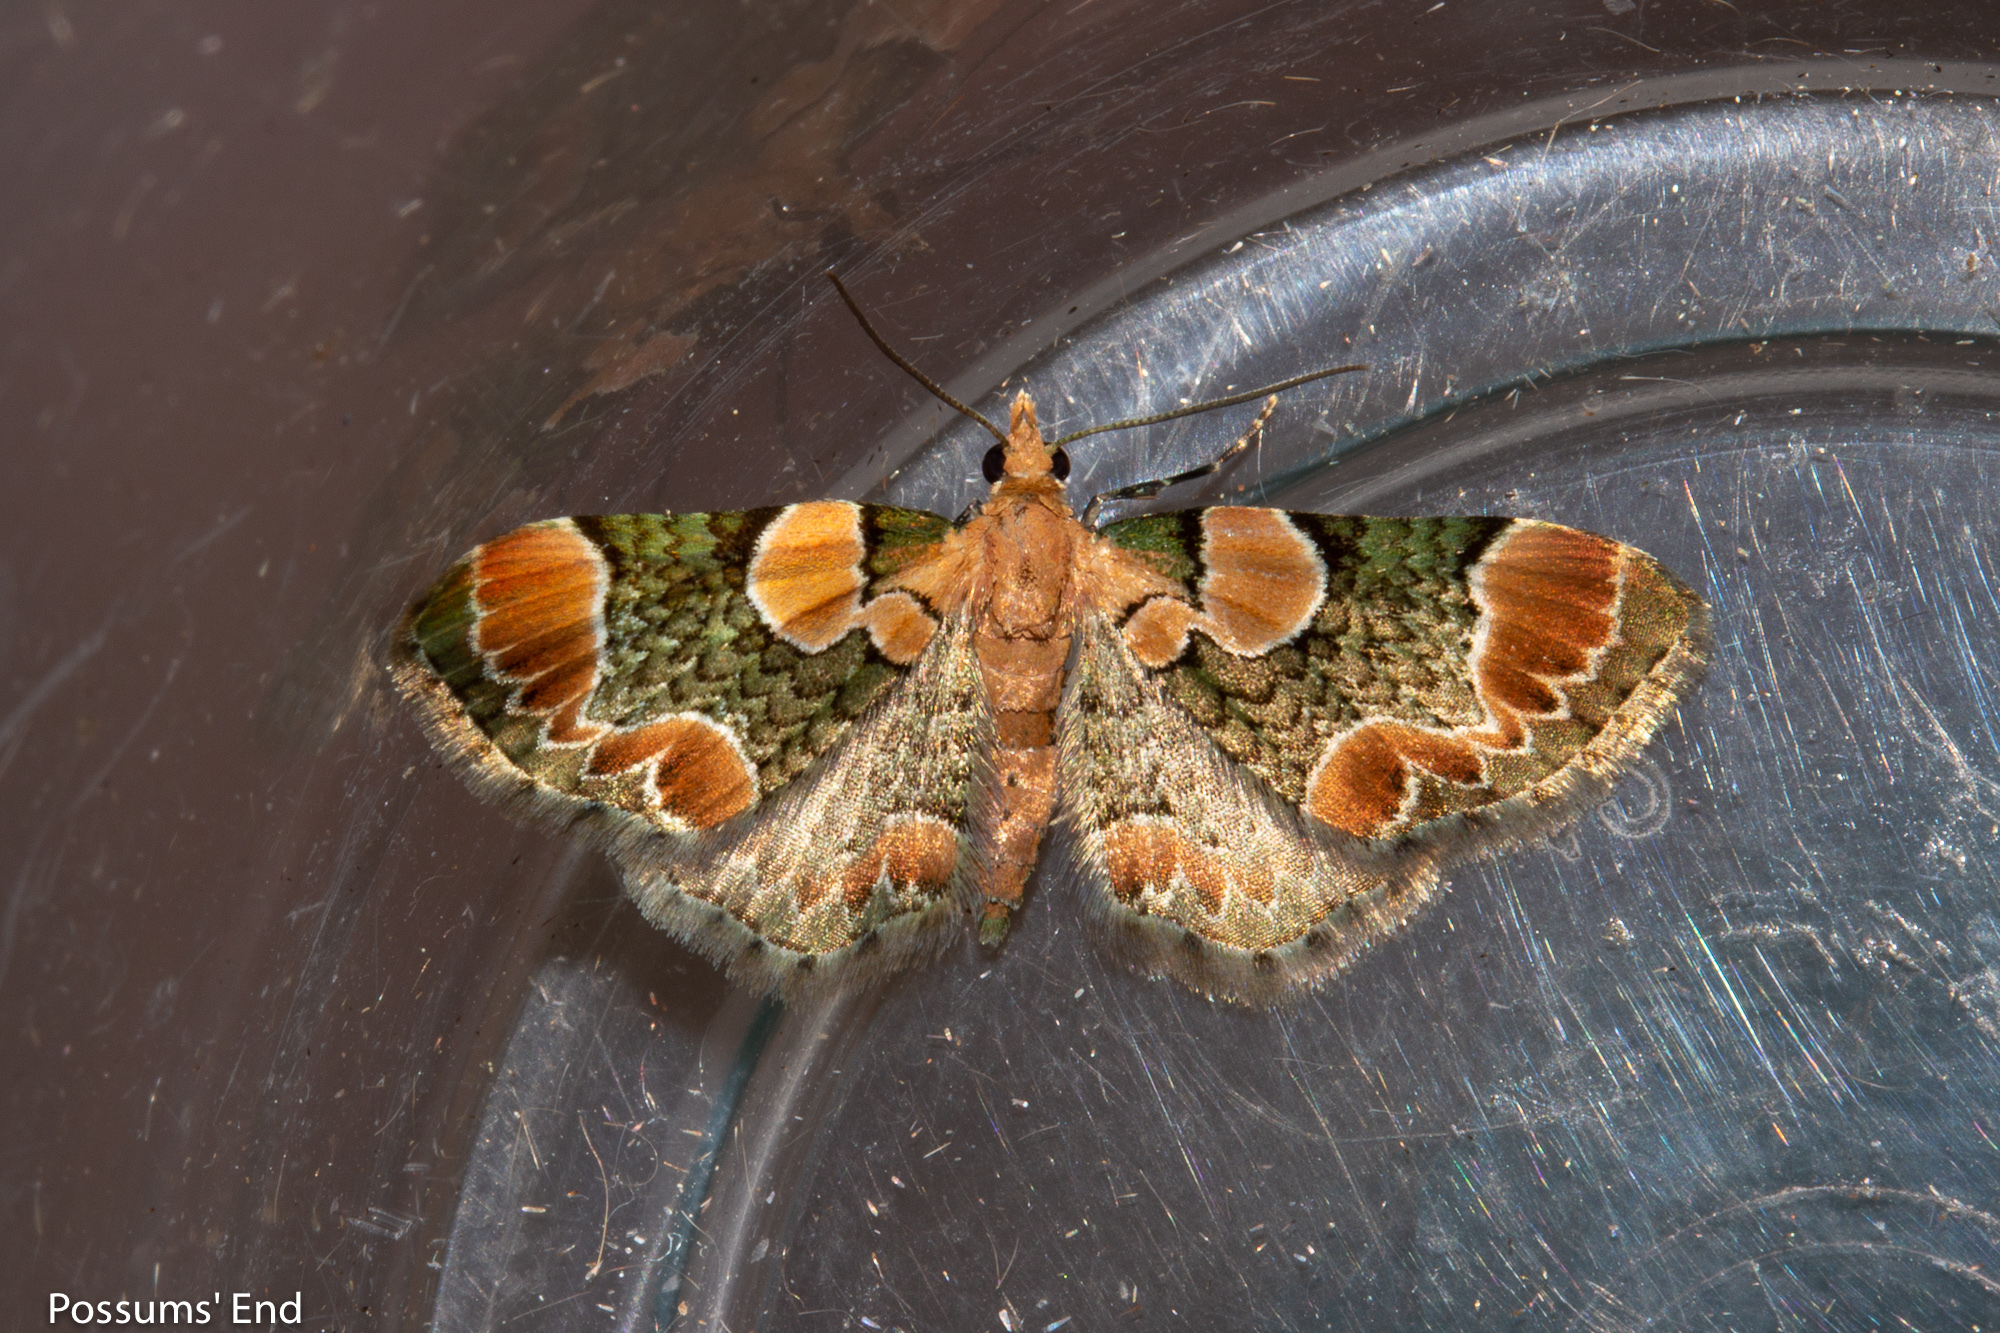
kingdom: Animalia
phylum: Arthropoda
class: Insecta
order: Lepidoptera
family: Geometridae
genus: Chloroclystis
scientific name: Chloroclystis
